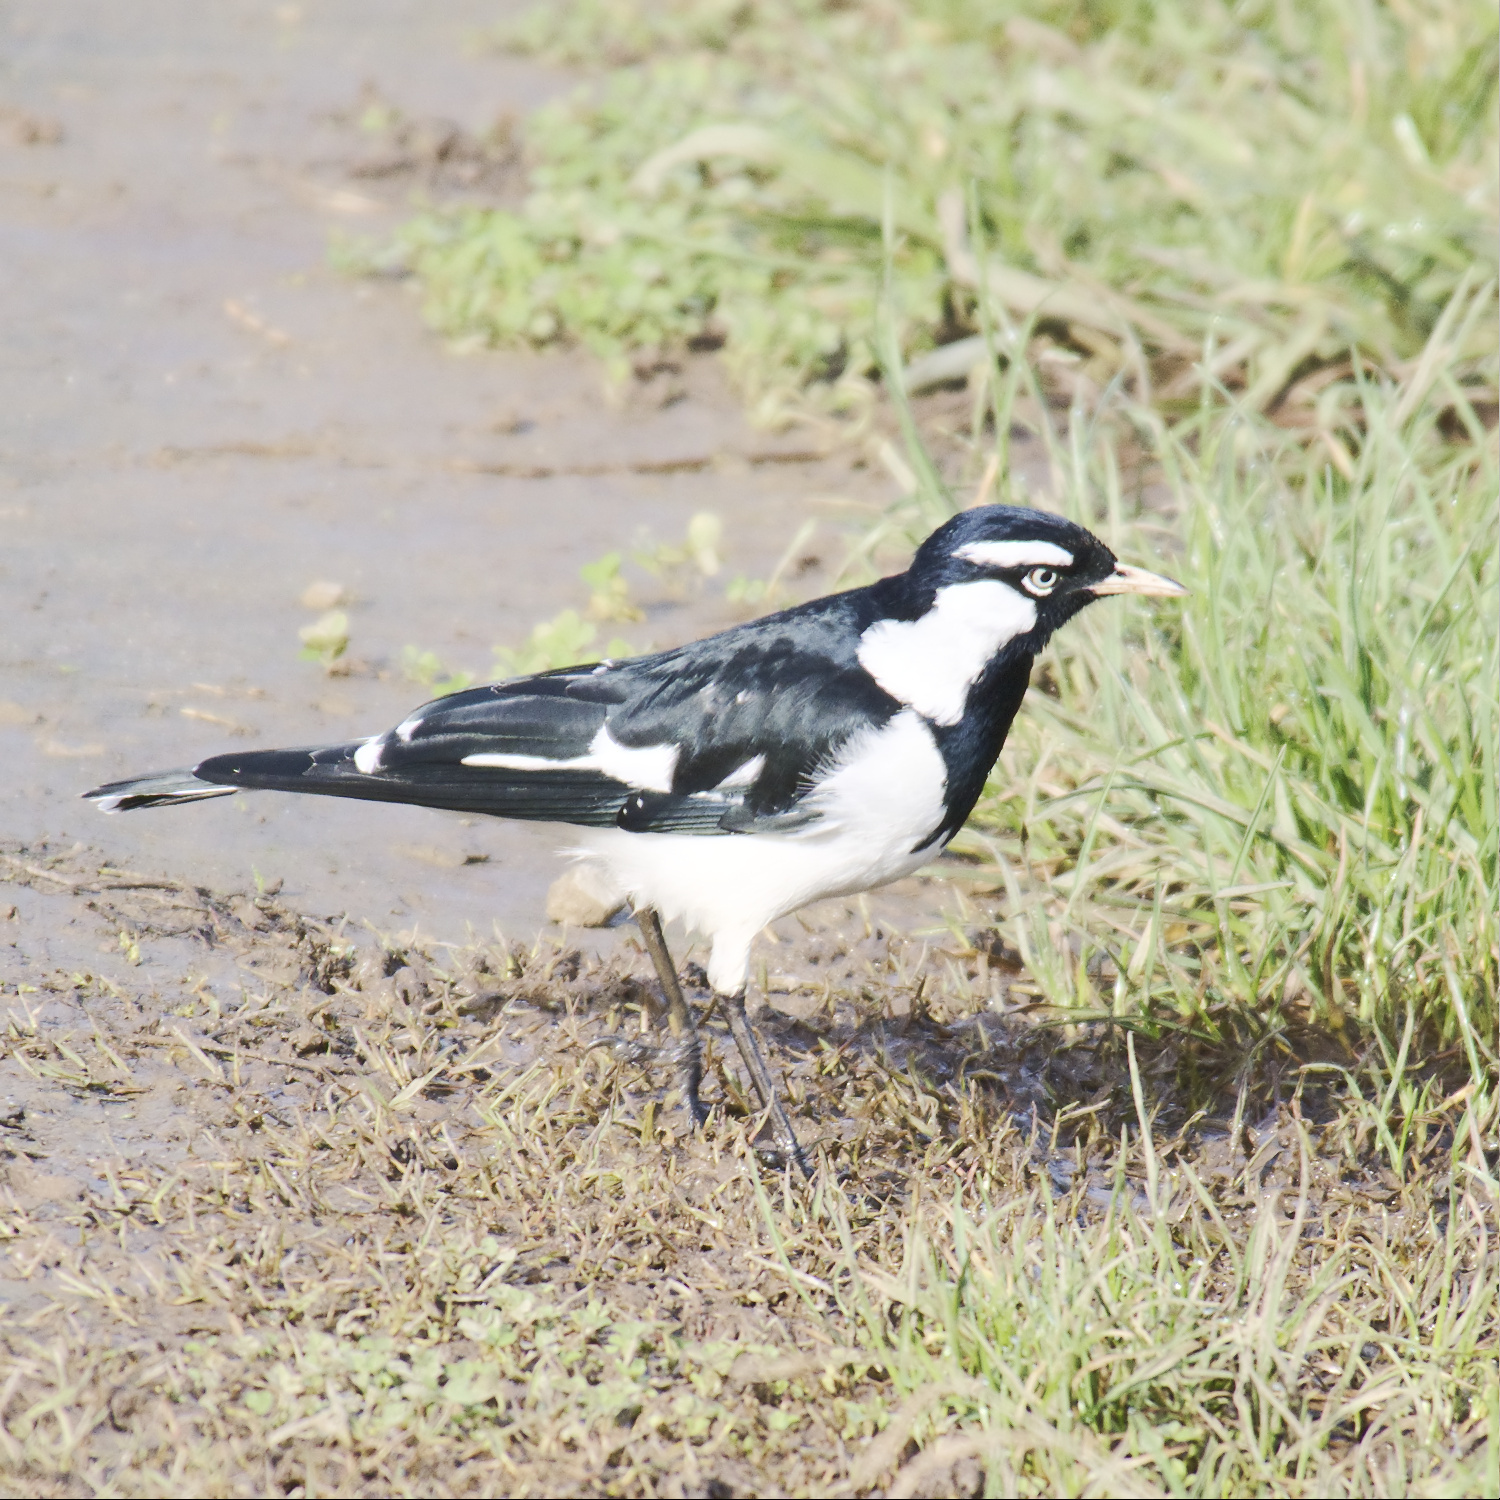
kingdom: Animalia
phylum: Chordata
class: Aves
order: Passeriformes
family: Monarchidae
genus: Grallina
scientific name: Grallina cyanoleuca
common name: Magpie-lark
